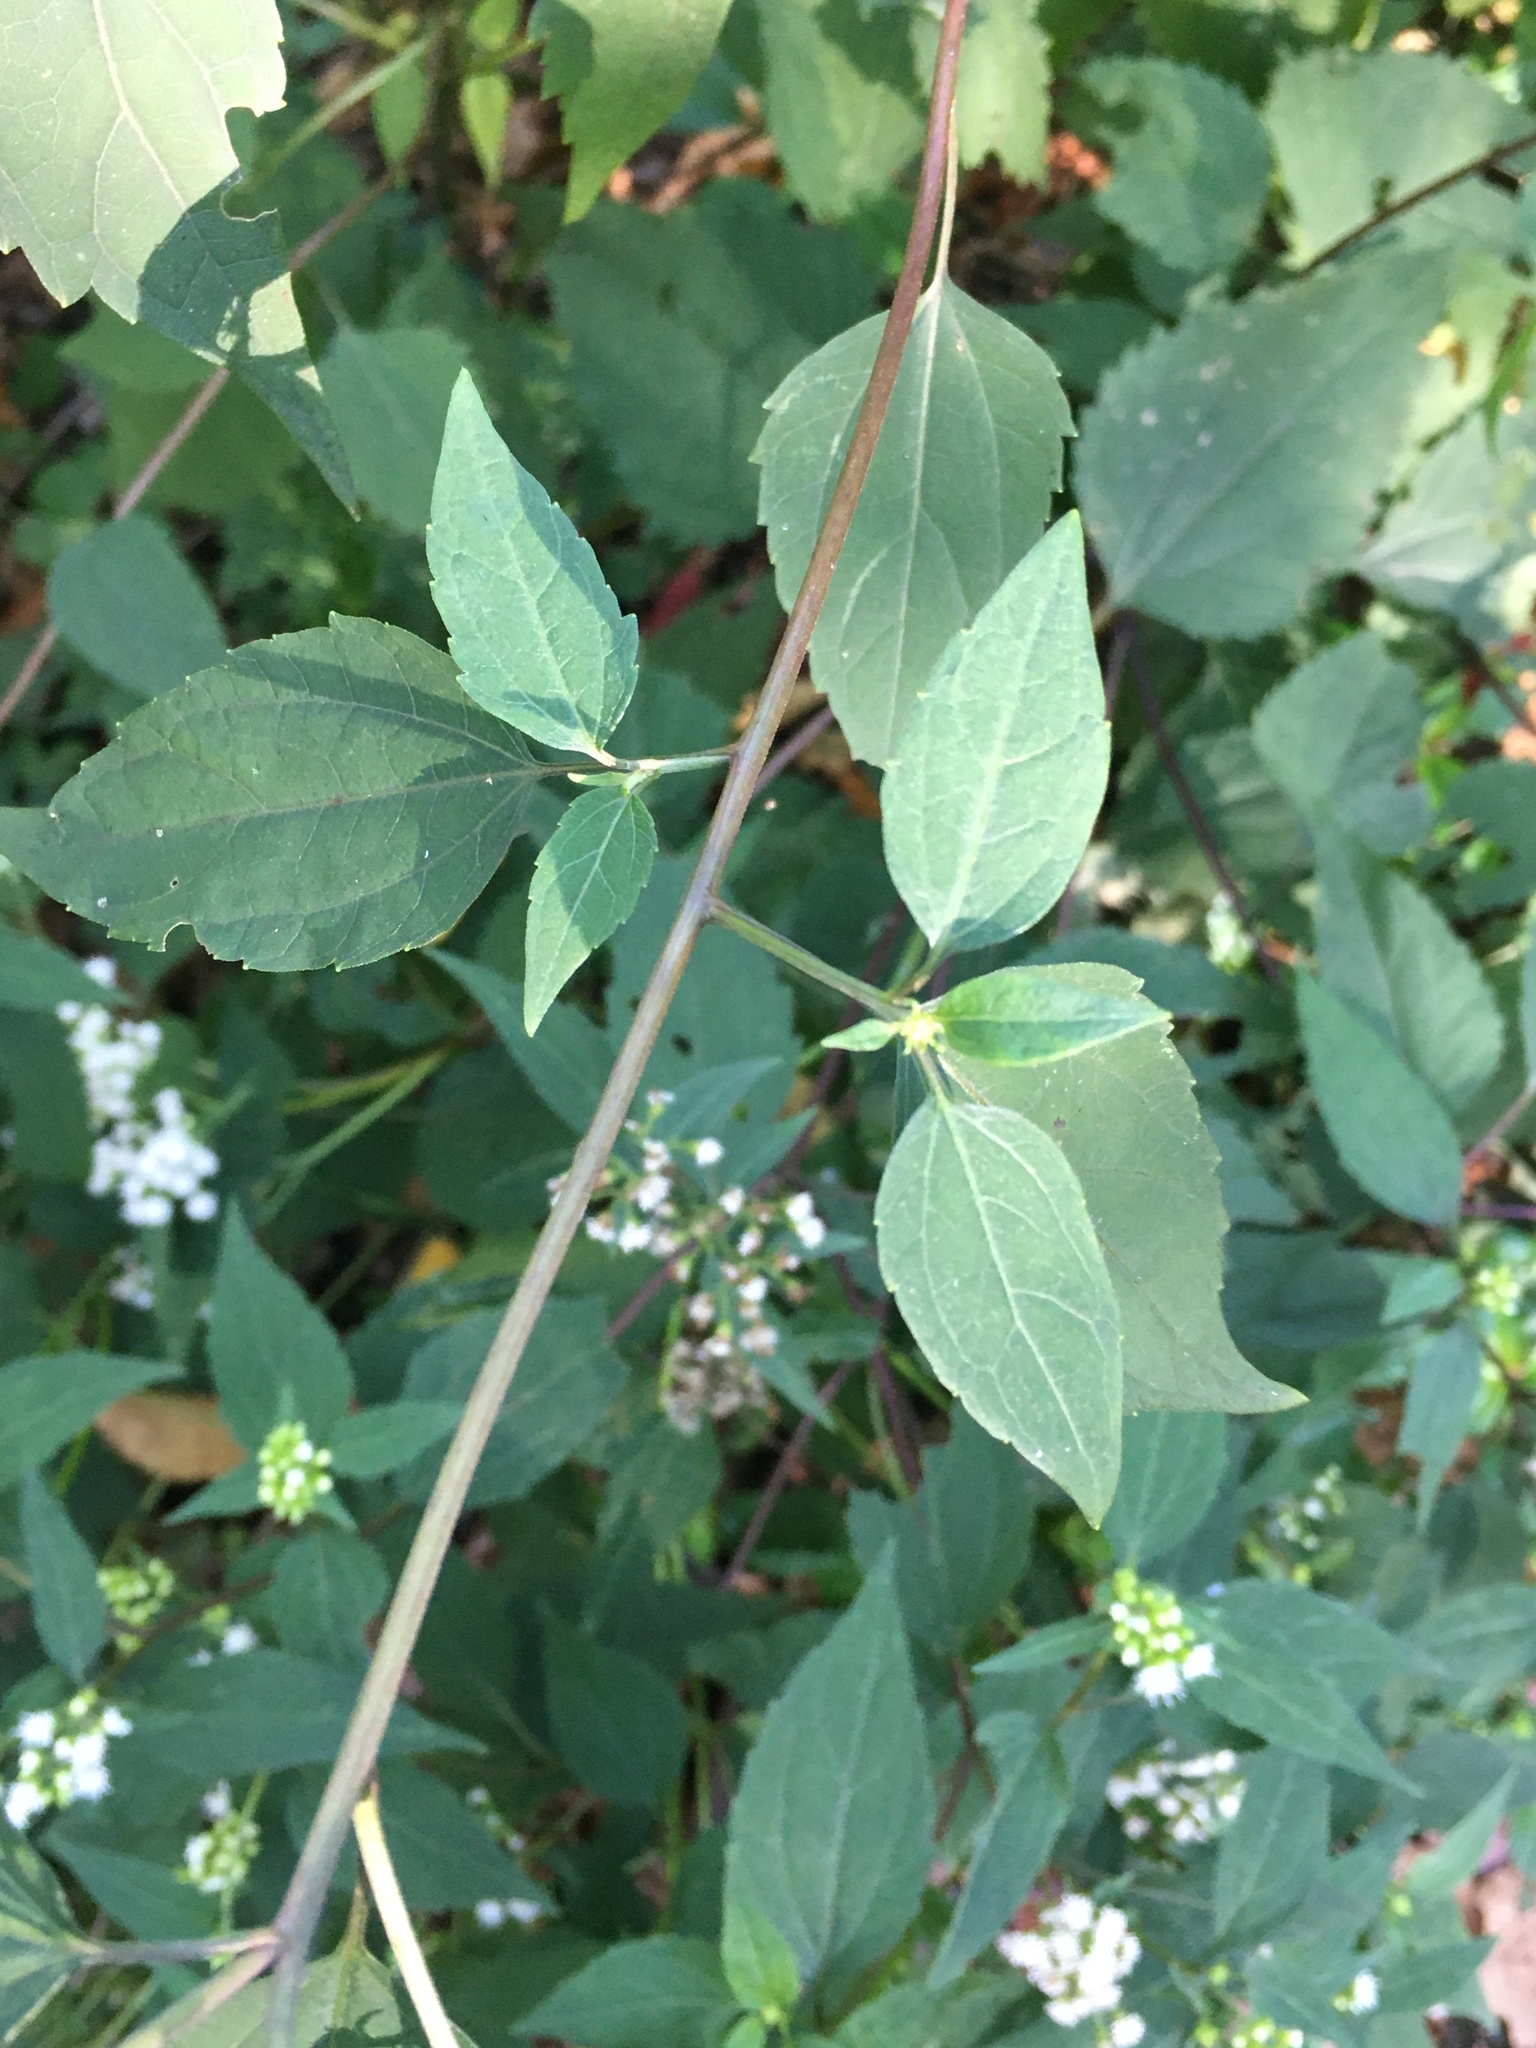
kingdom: Plantae
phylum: Tracheophyta
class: Magnoliopsida
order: Asterales
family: Asteraceae
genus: Ageratina
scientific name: Ageratina altissima
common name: White snakeroot
